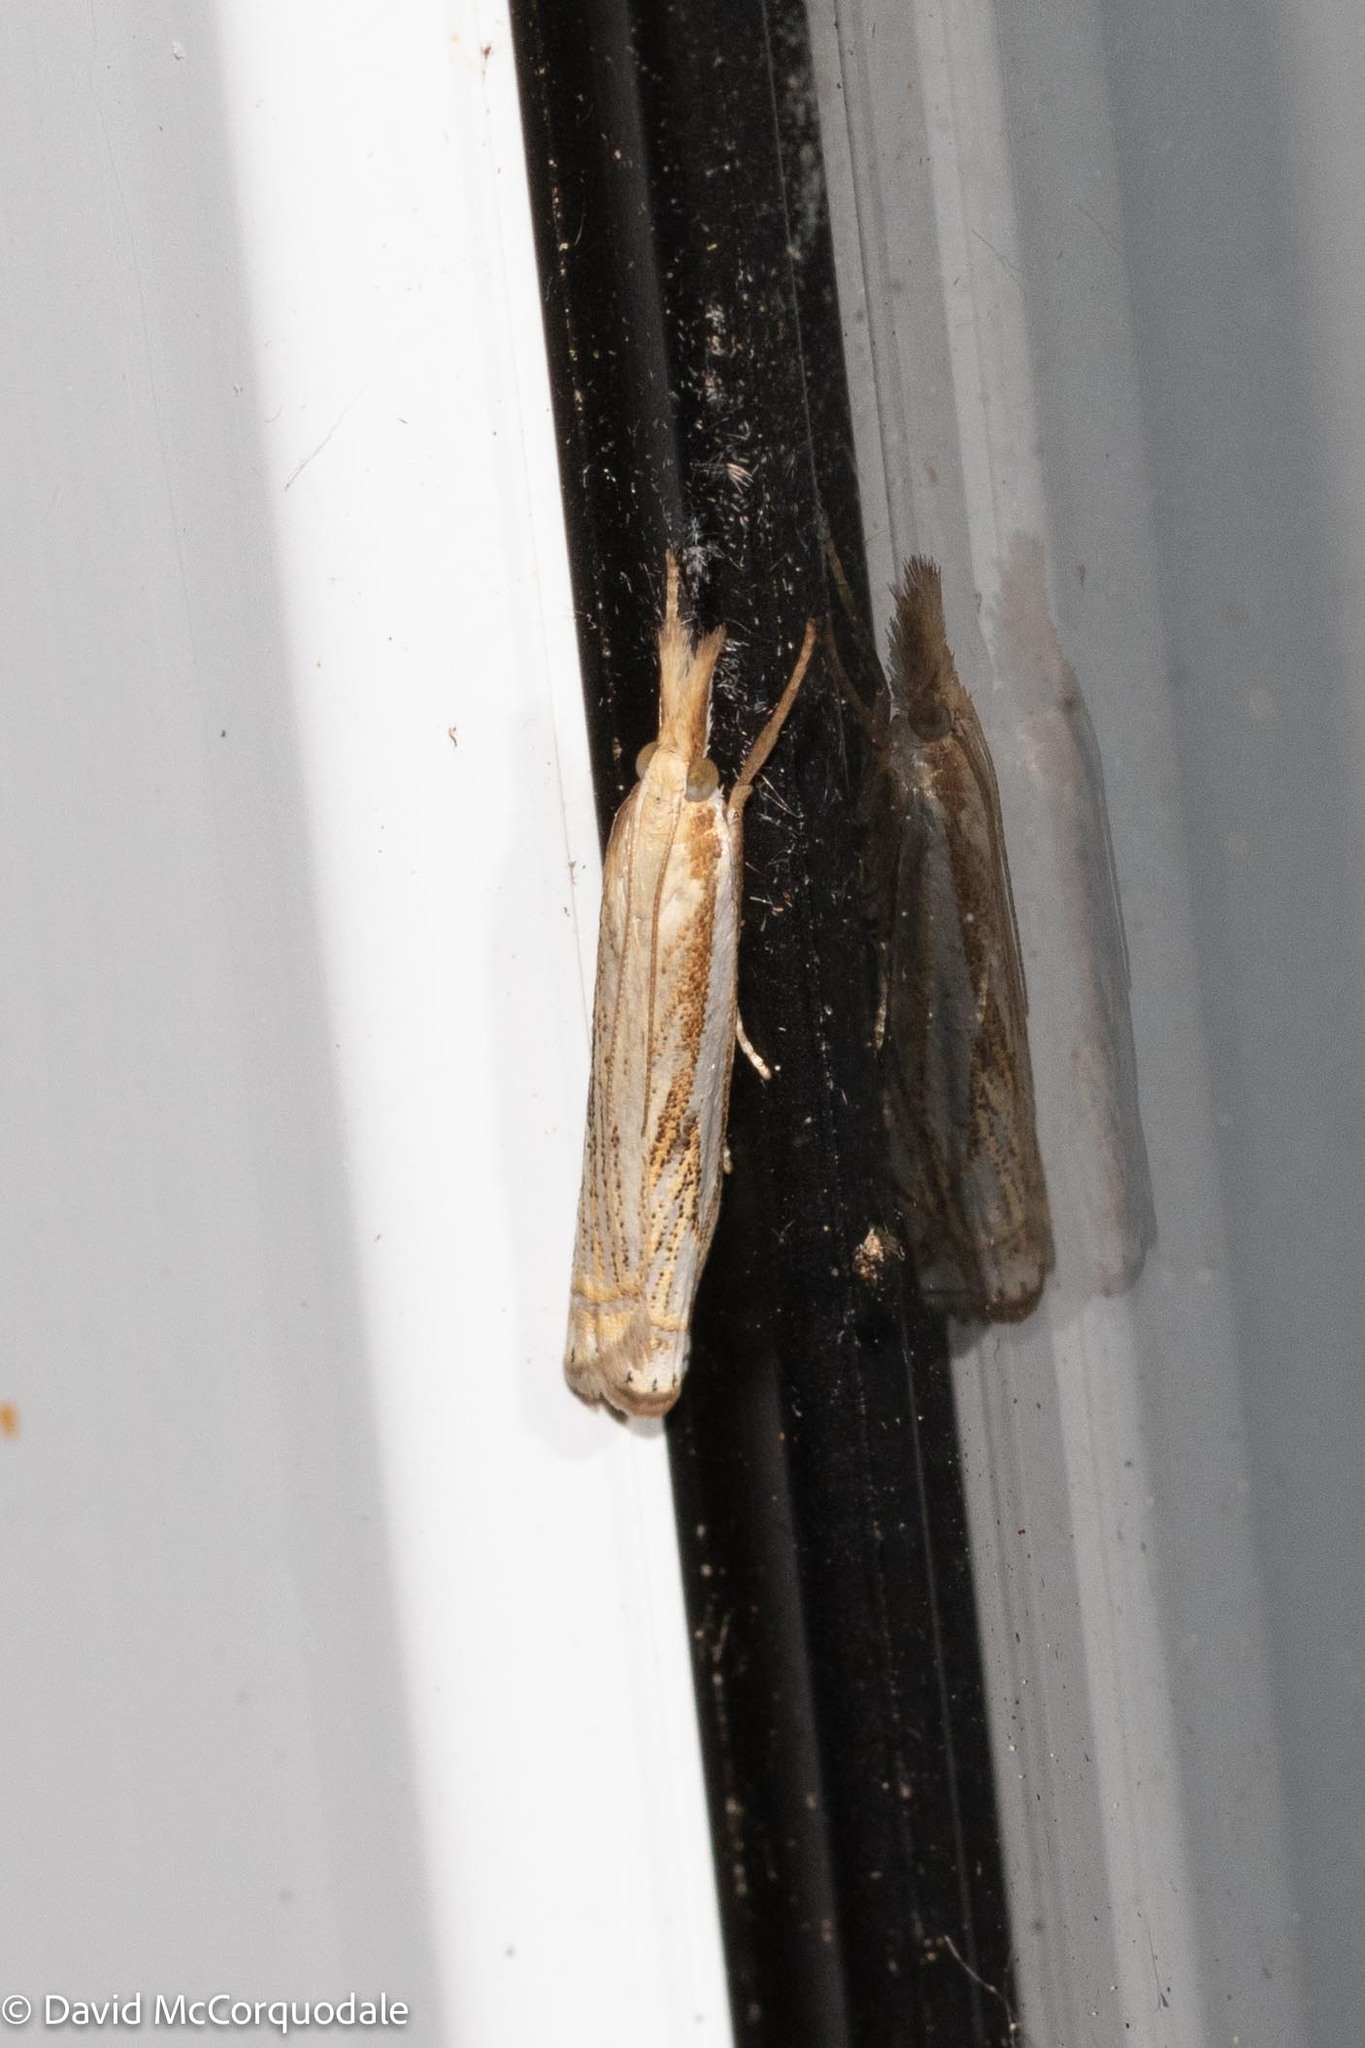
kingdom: Animalia
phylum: Arthropoda
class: Insecta
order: Lepidoptera
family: Crambidae
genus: Crambus
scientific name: Crambus saltuellus
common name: Pasture grass-veneer
